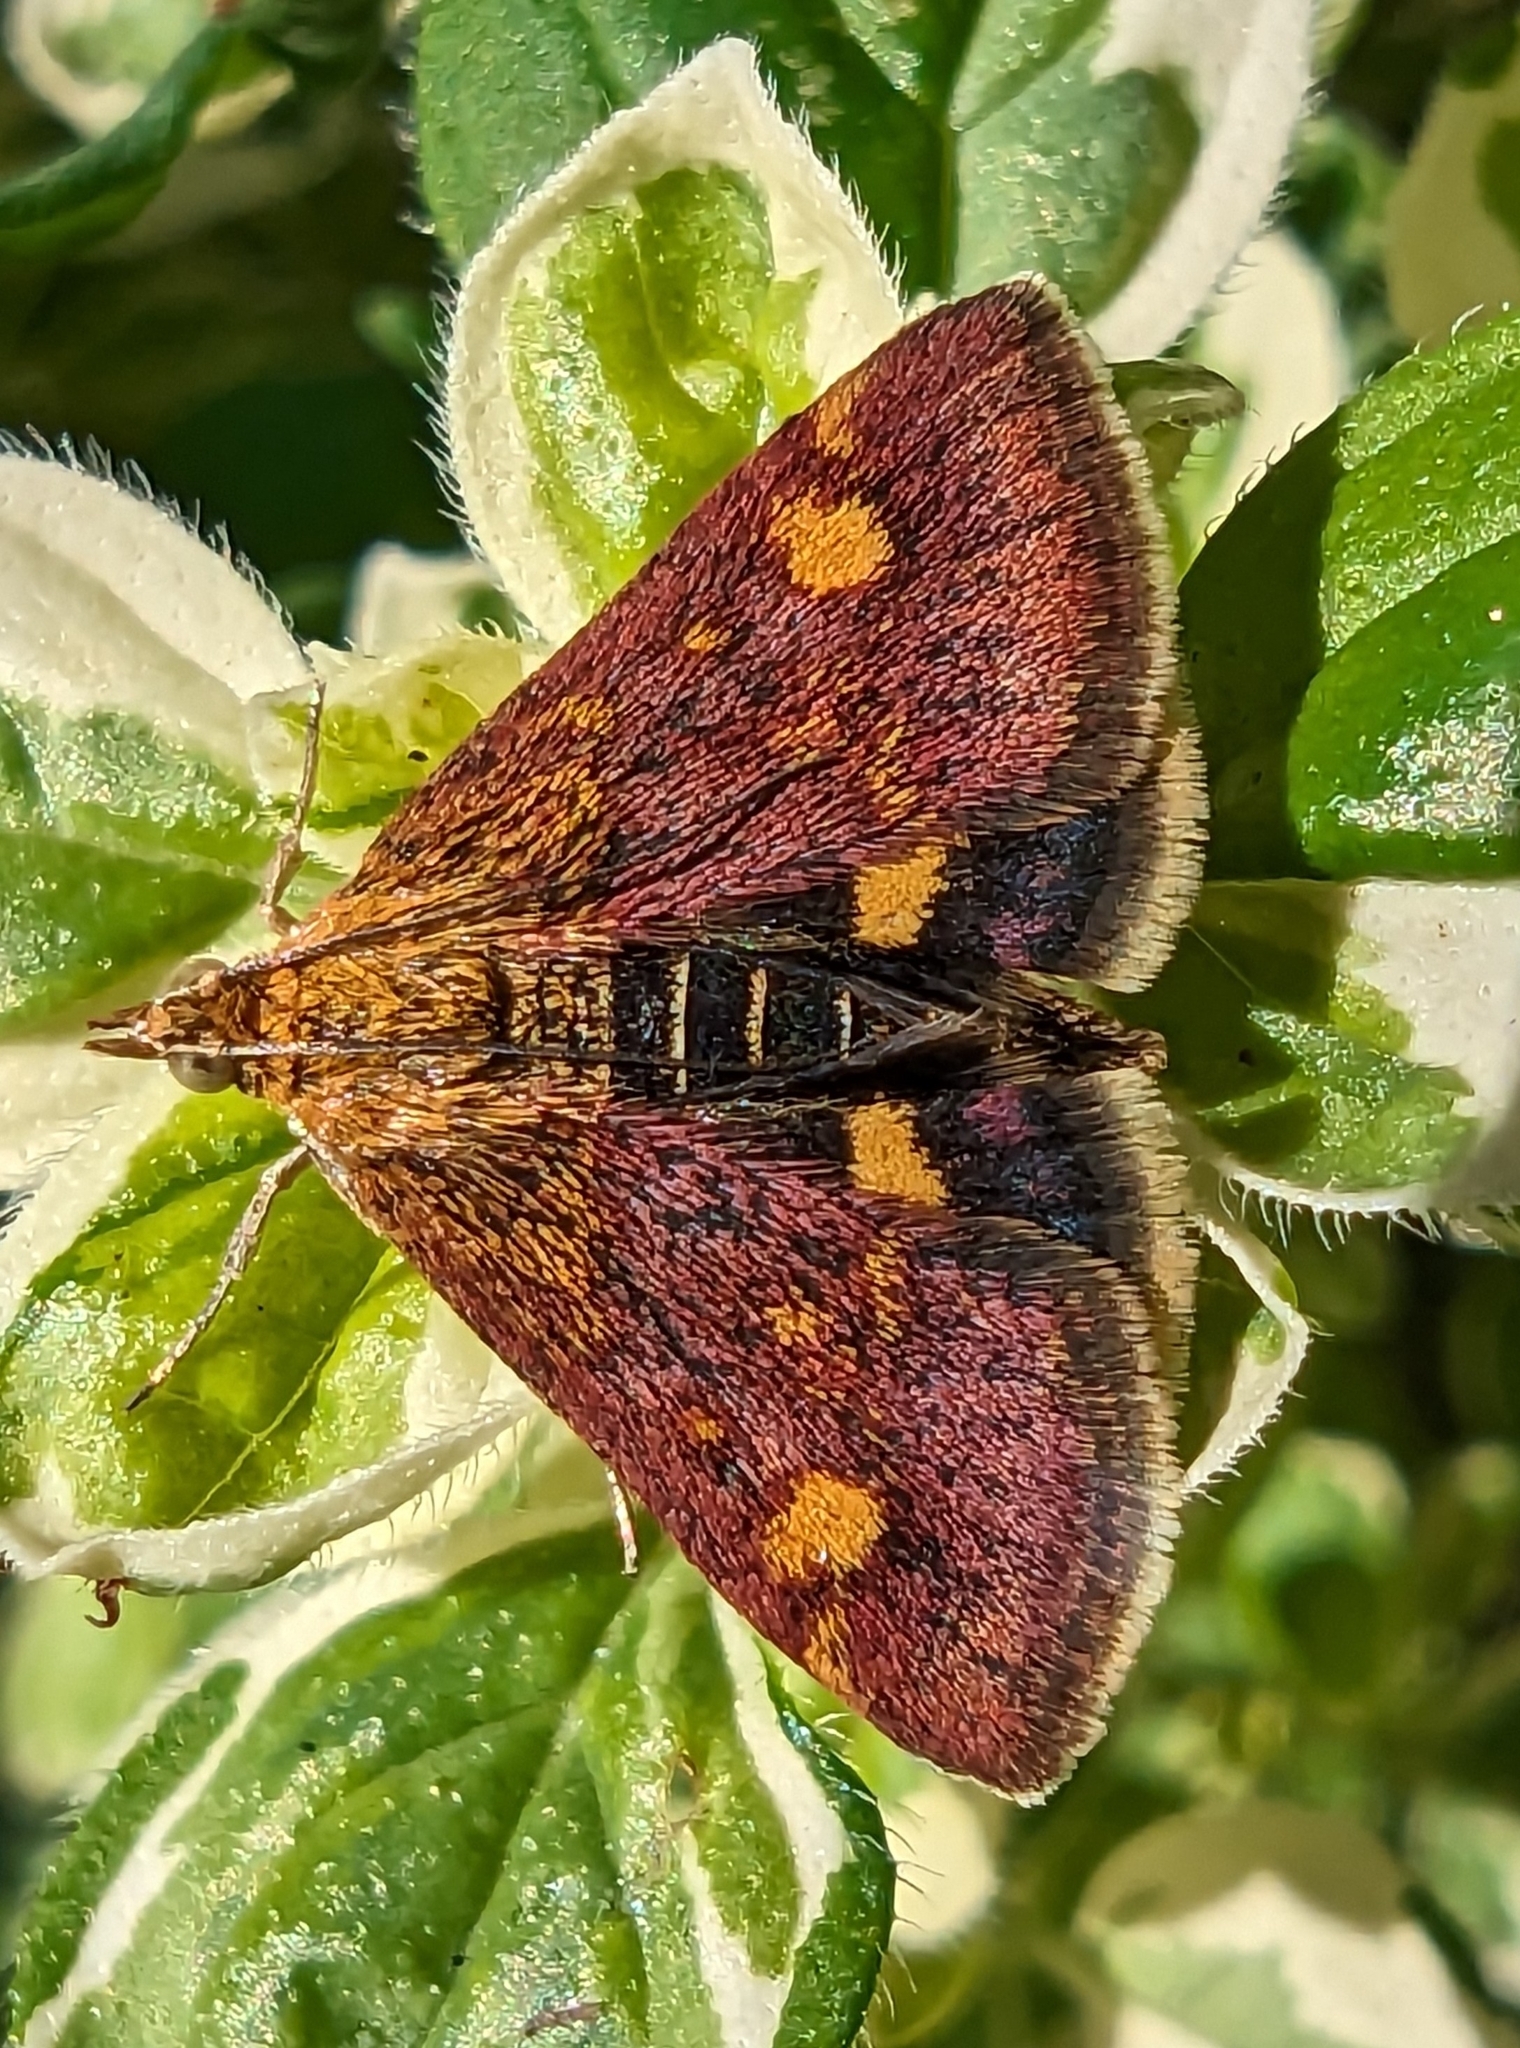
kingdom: Animalia
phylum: Arthropoda
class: Insecta
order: Lepidoptera
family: Crambidae
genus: Pyrausta
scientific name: Pyrausta aurata
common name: Small purple & gold
